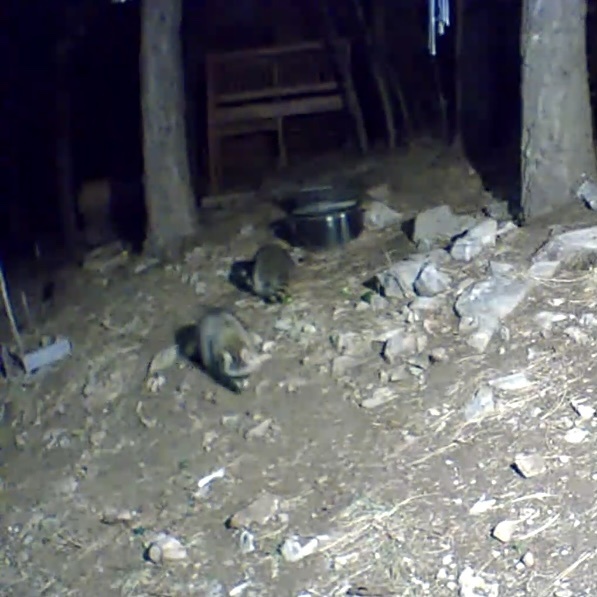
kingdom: Animalia
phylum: Chordata
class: Mammalia
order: Carnivora
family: Procyonidae
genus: Procyon
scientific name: Procyon lotor
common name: Raccoon
